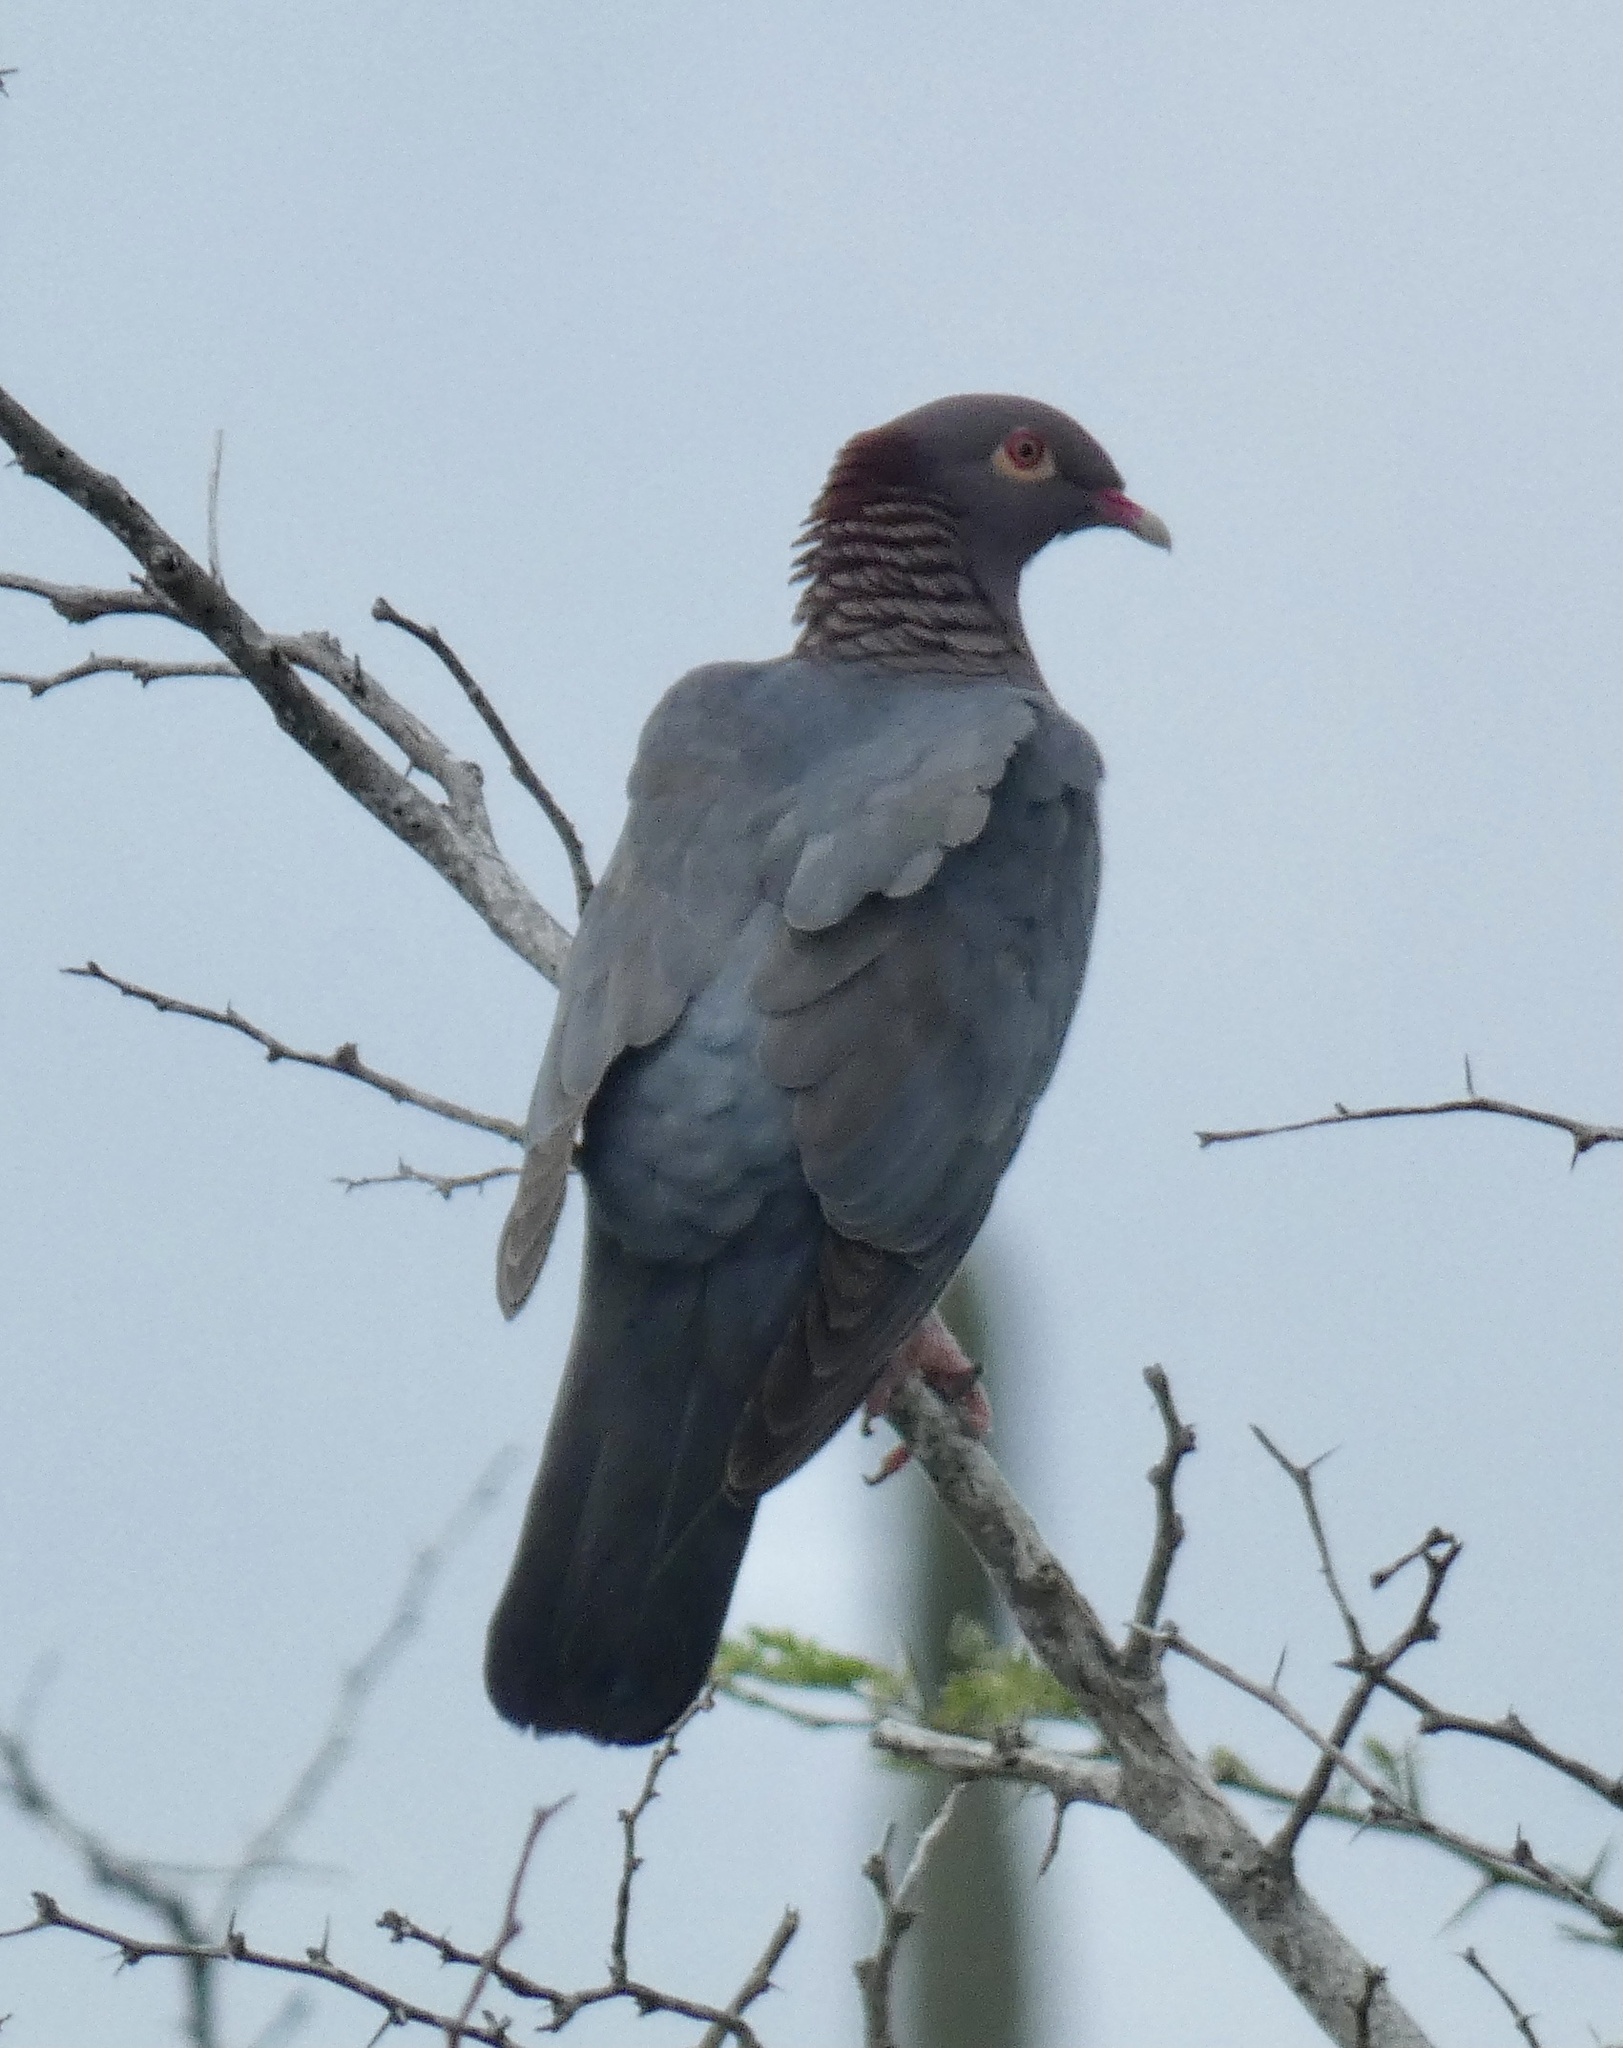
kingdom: Animalia
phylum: Chordata
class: Aves
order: Columbiformes
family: Columbidae
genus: Patagioenas
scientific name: Patagioenas squamosa
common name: Scaly-naped pigeon
